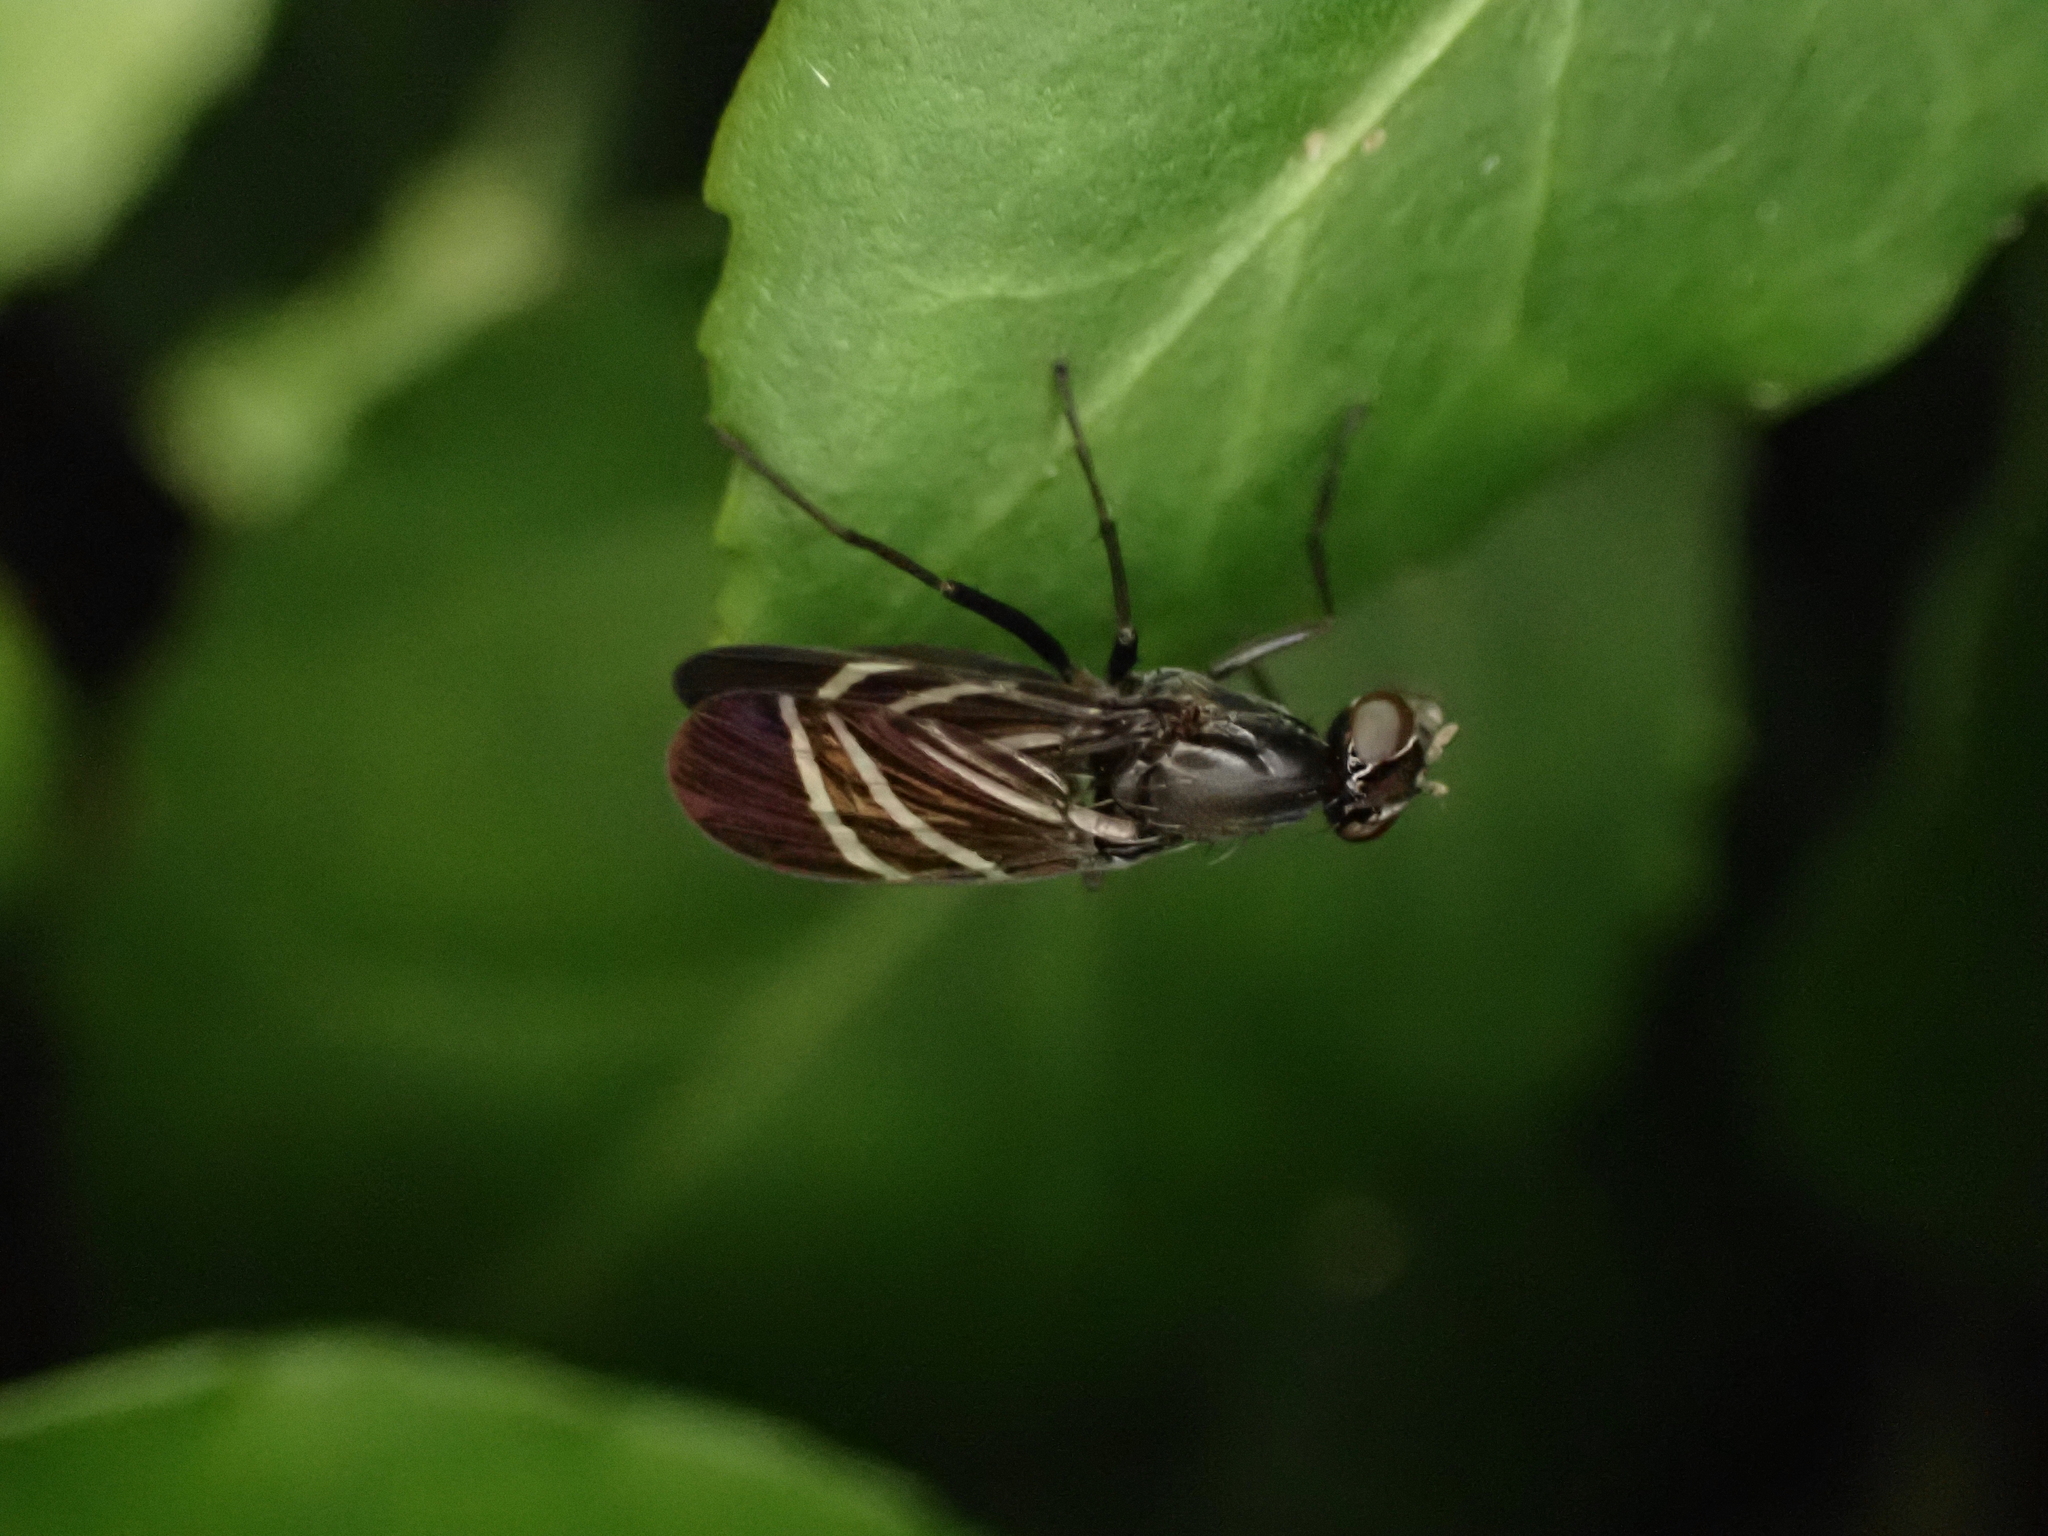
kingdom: Animalia
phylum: Arthropoda
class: Insecta
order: Diptera
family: Ulidiidae
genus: Tritoxa
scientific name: Tritoxa flexa
